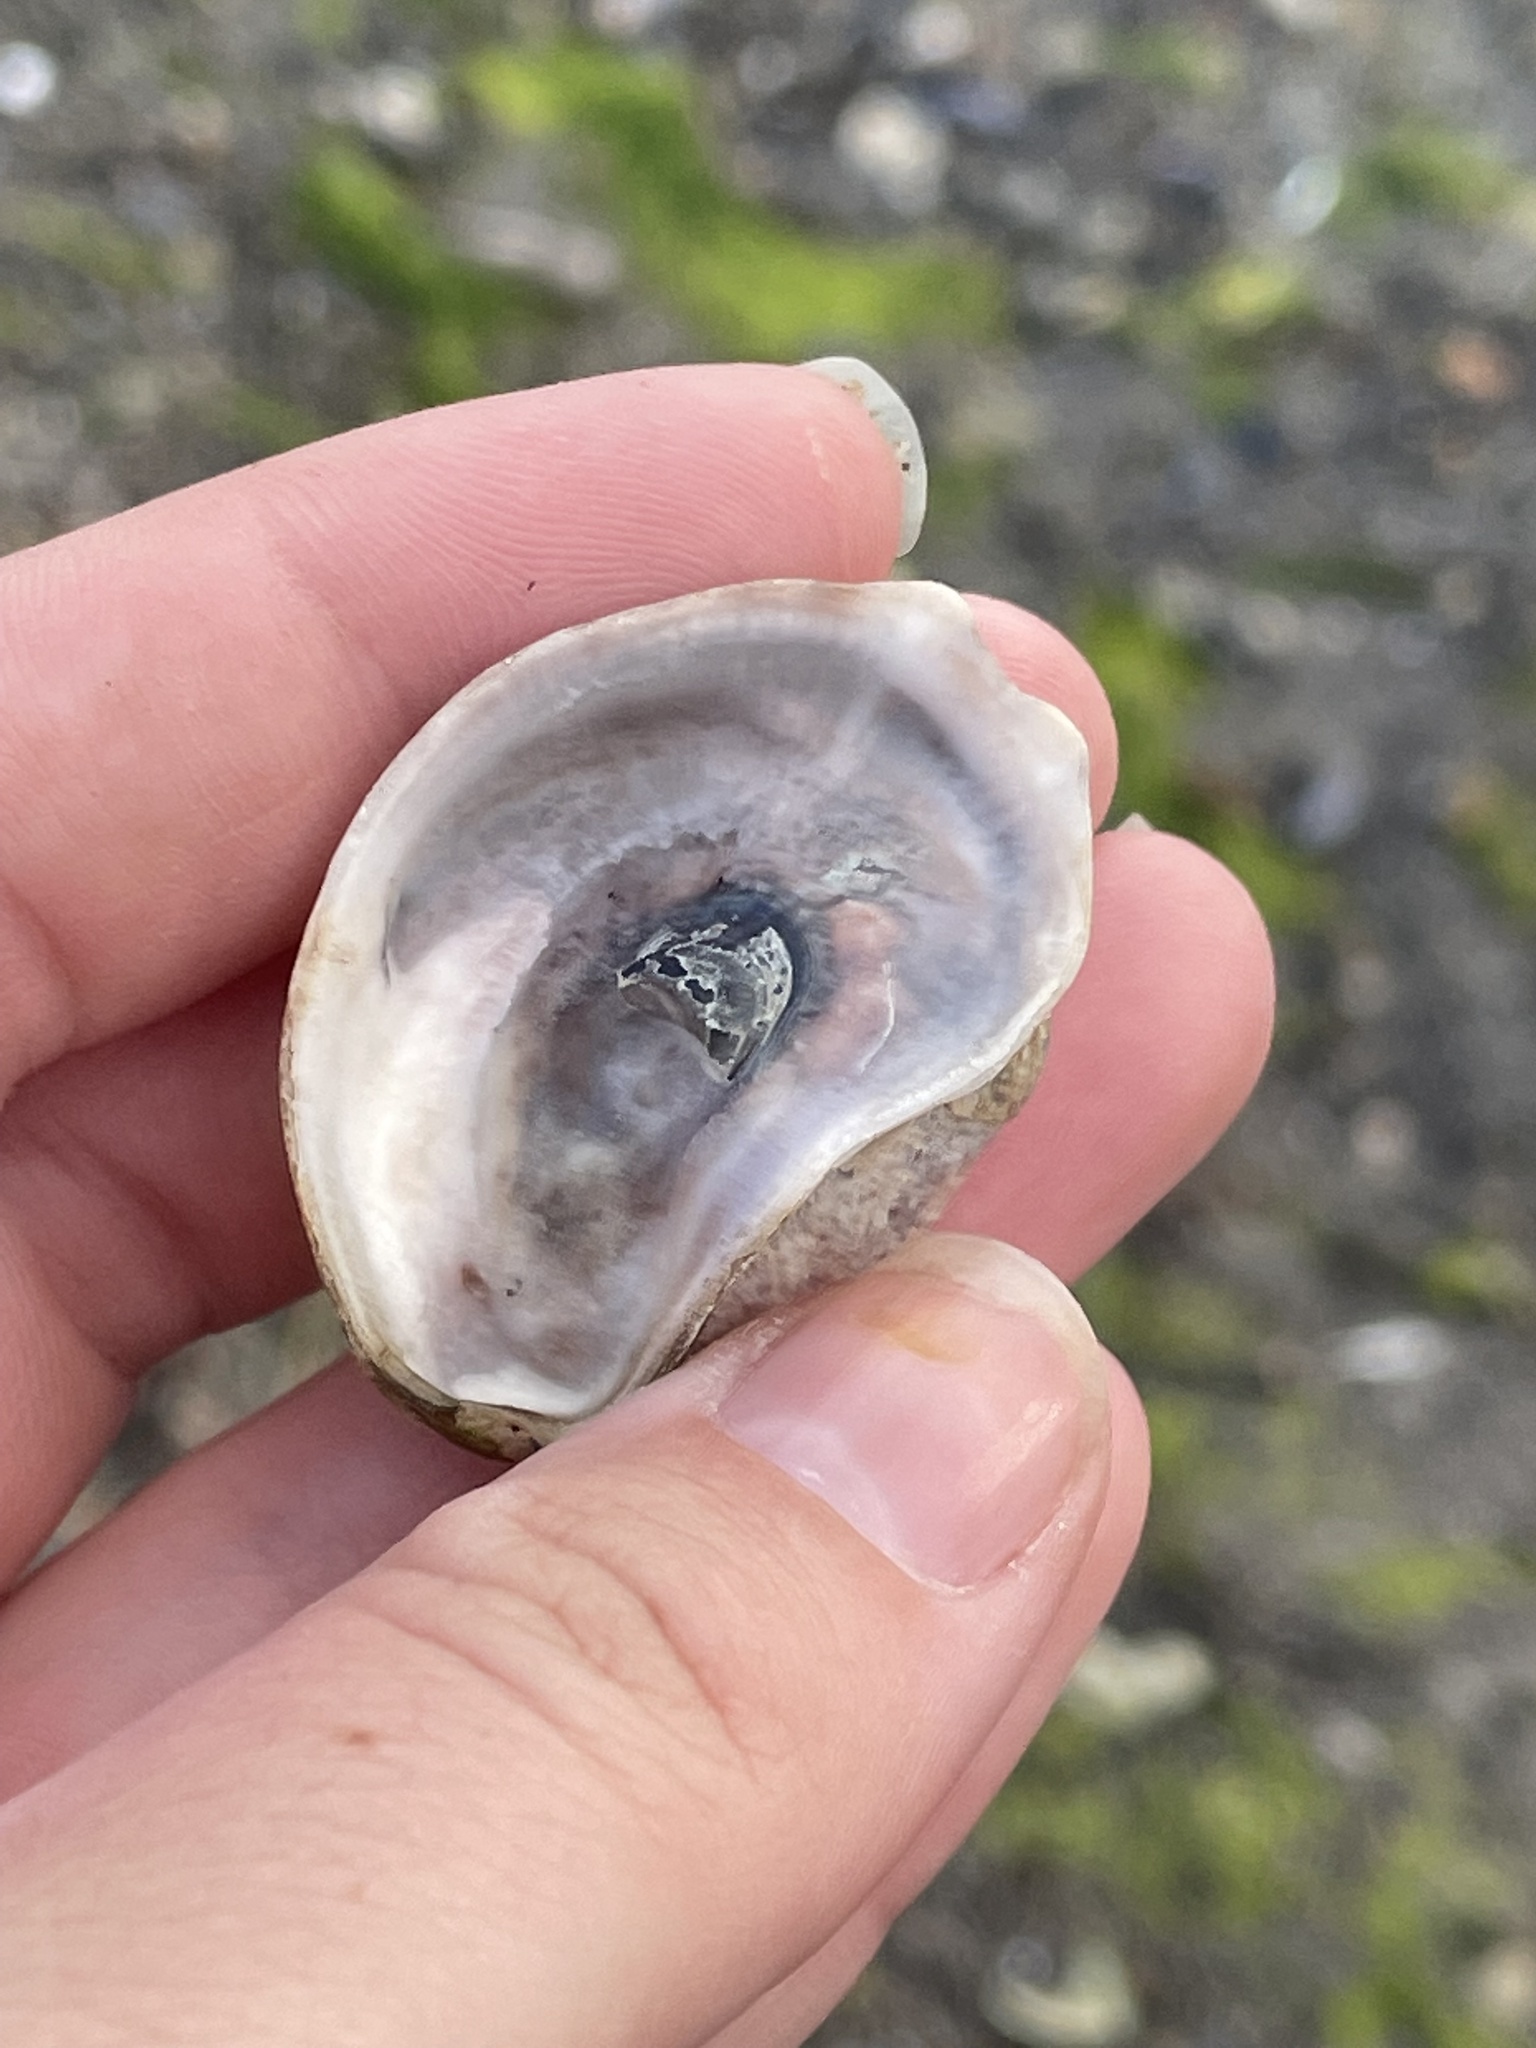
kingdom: Animalia
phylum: Mollusca
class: Bivalvia
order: Ostreida
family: Ostreidae
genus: Crassostrea
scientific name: Crassostrea virginica
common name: American oyster
